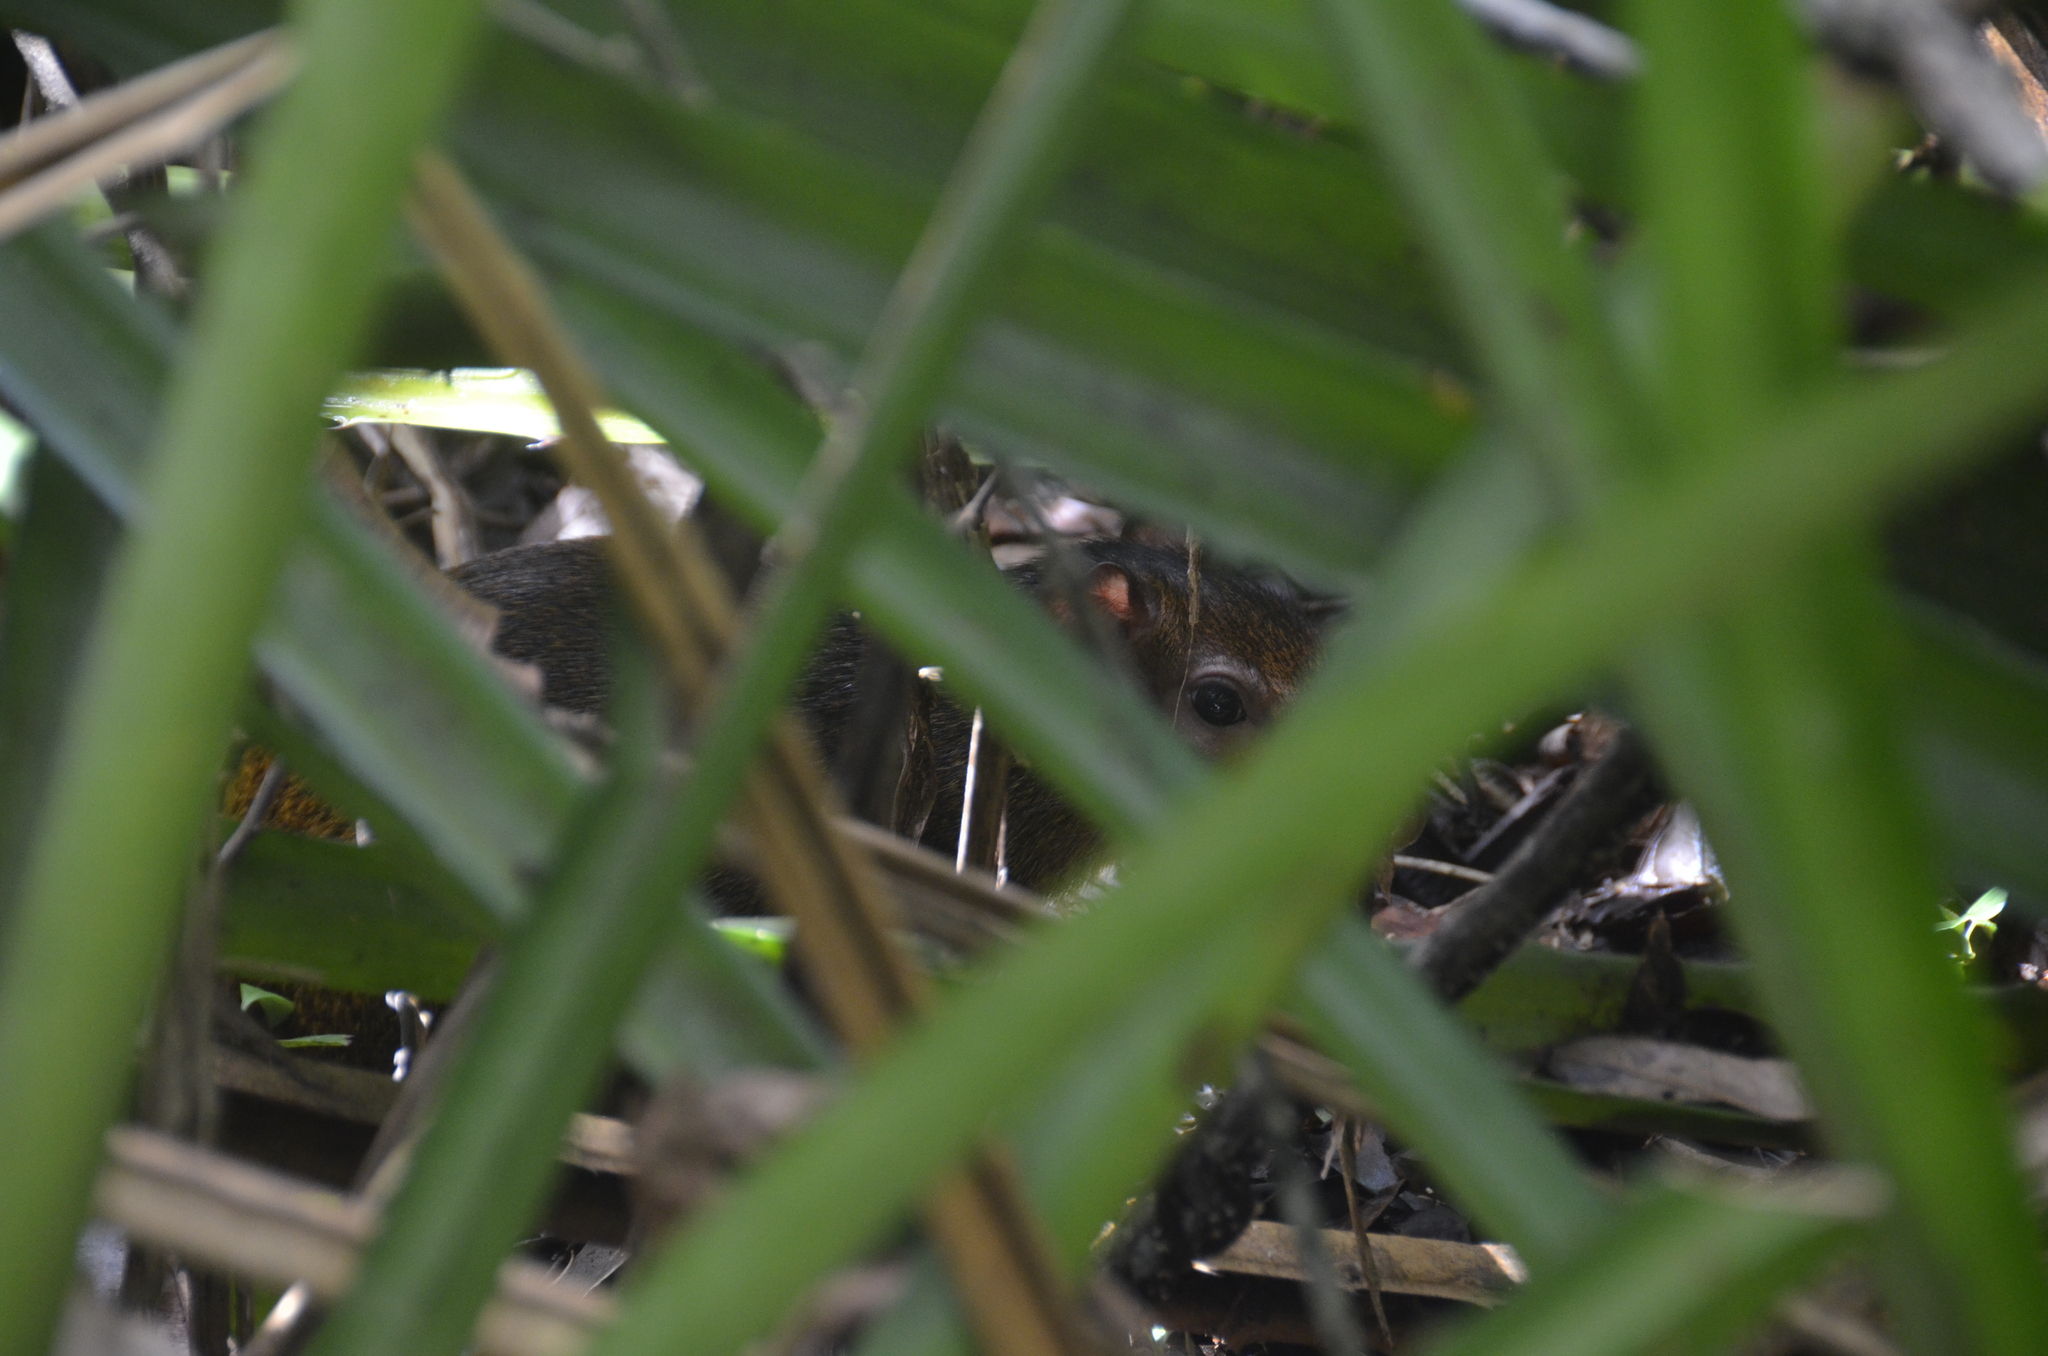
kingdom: Animalia
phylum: Chordata
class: Mammalia
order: Rodentia
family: Dasyproctidae
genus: Dasyprocta
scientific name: Dasyprocta punctata
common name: Central american agouti
